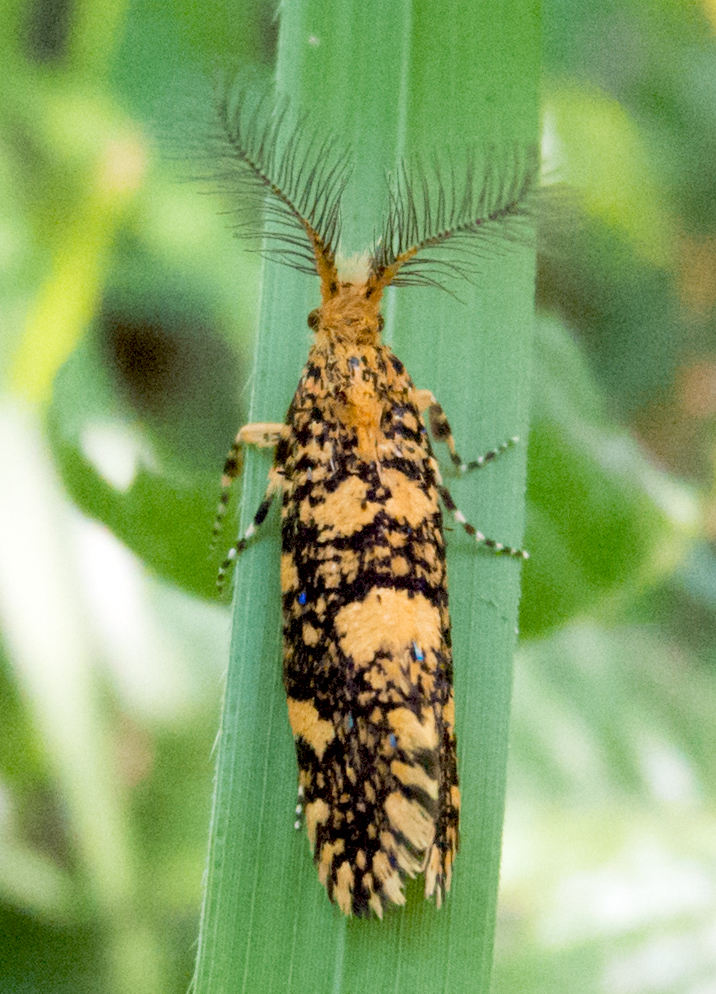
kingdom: Animalia
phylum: Arthropoda
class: Insecta
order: Lepidoptera
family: Tineidae
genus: Euplocamus
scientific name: Euplocamus ophisa
